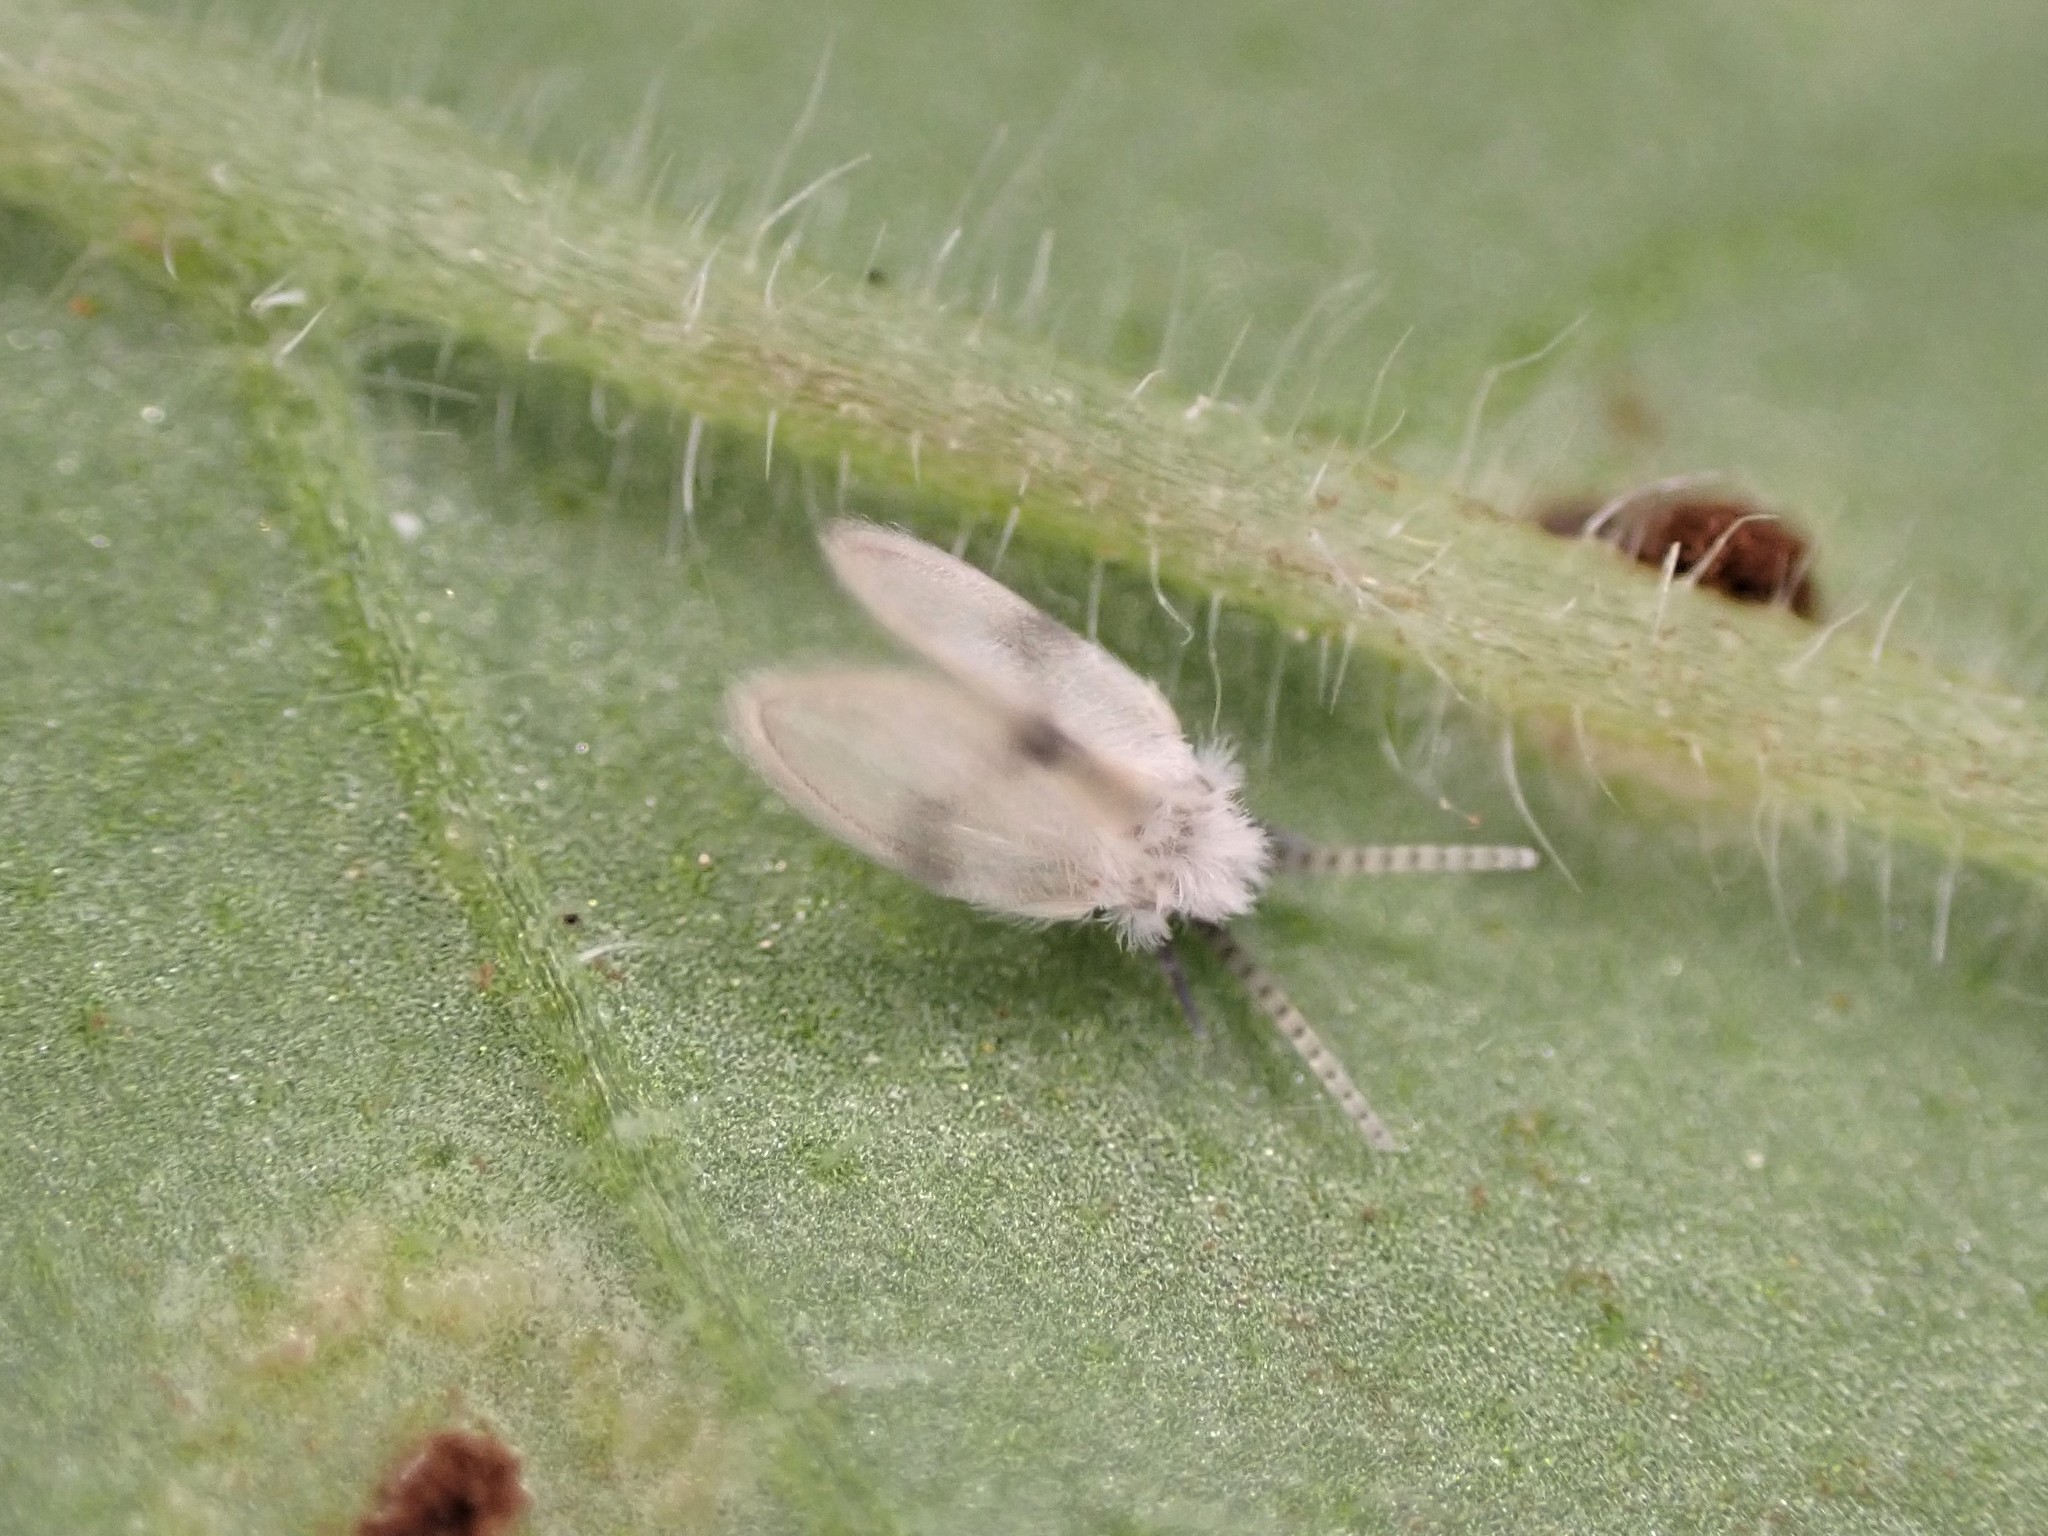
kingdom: Animalia
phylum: Arthropoda
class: Insecta
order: Diptera
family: Psychodidae
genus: Psychoda
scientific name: Psychoda sigma
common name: Moth fly
